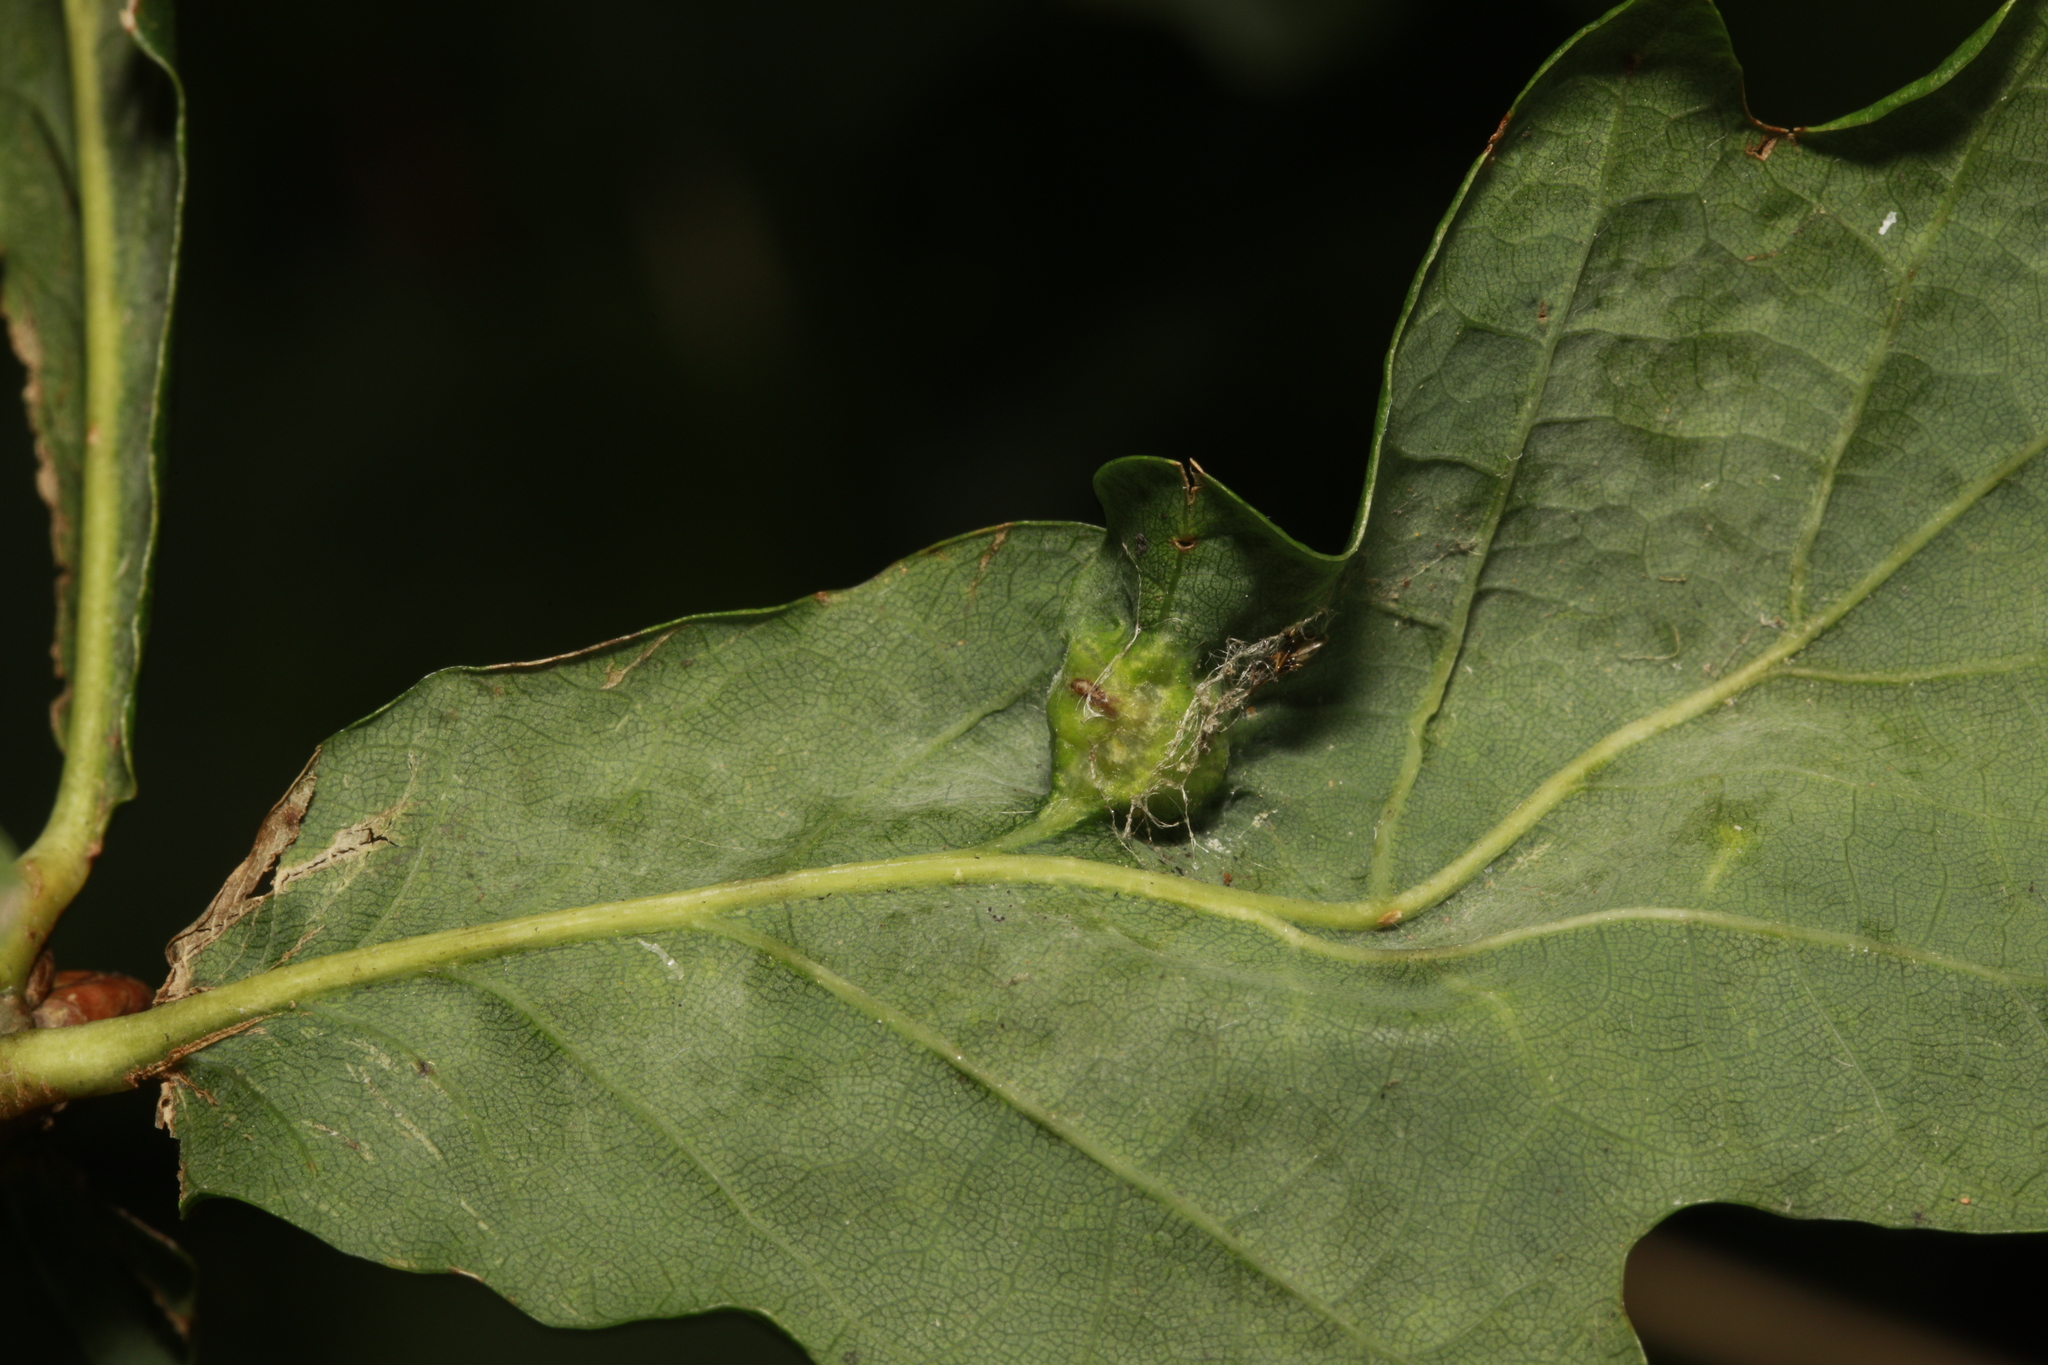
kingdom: Animalia
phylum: Arthropoda
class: Insecta
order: Hymenoptera
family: Cynipidae
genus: Andricus
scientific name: Andricus curvator
